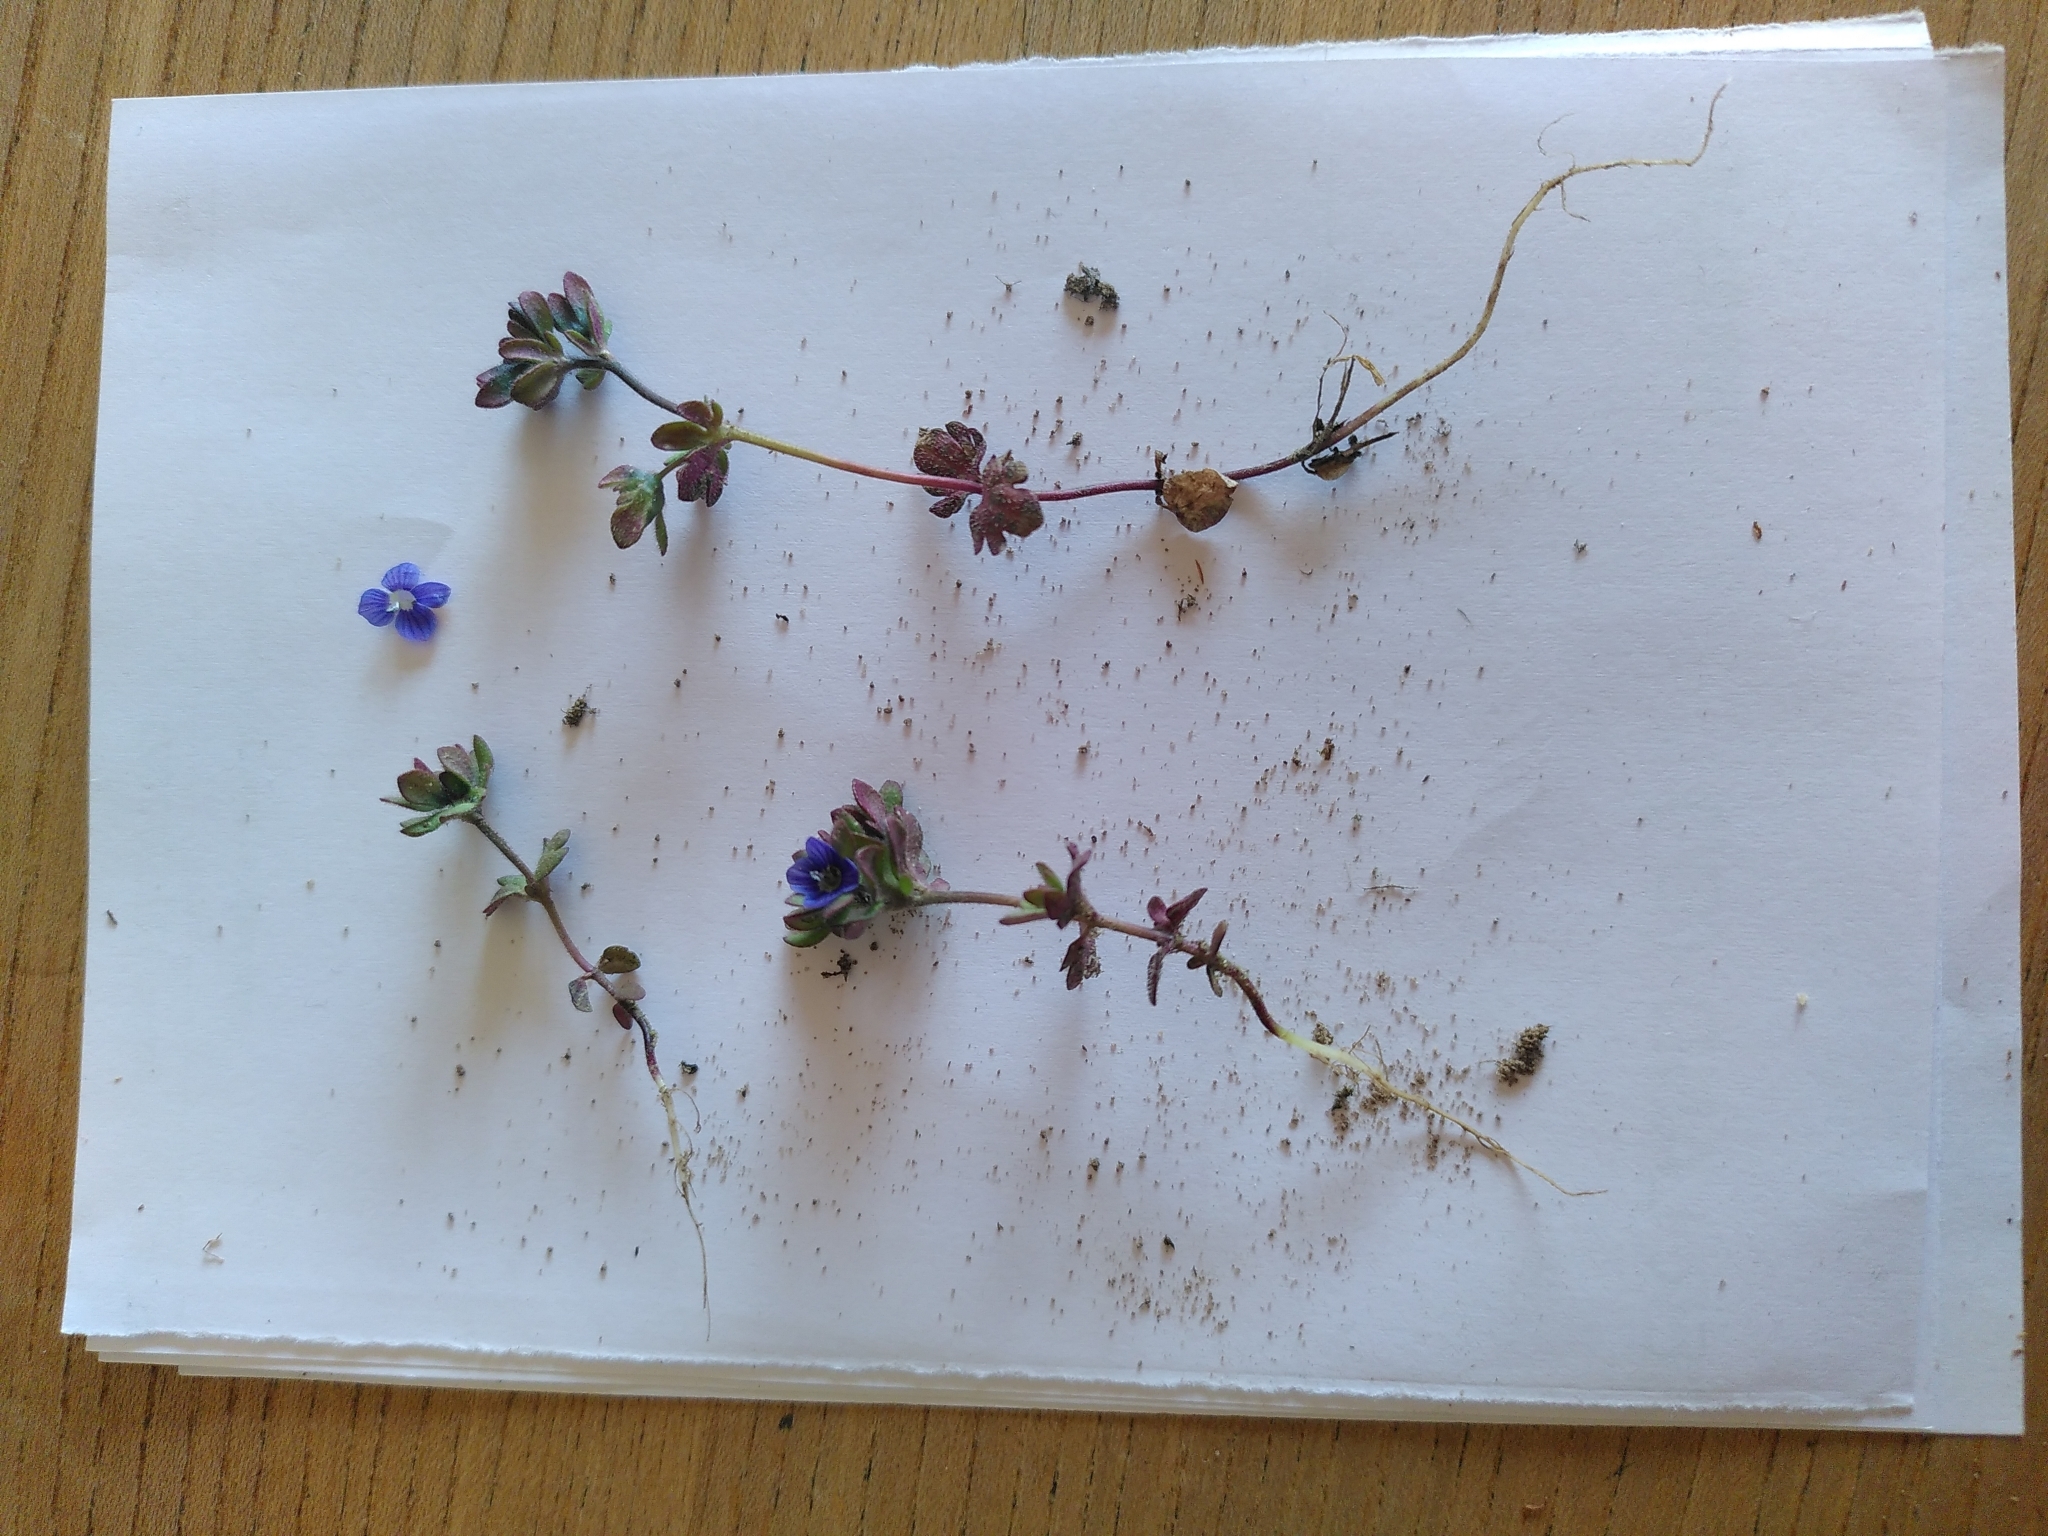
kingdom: Plantae
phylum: Tracheophyta
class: Magnoliopsida
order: Lamiales
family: Plantaginaceae
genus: Veronica
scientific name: Veronica triphyllos
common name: Fingered speedwell
